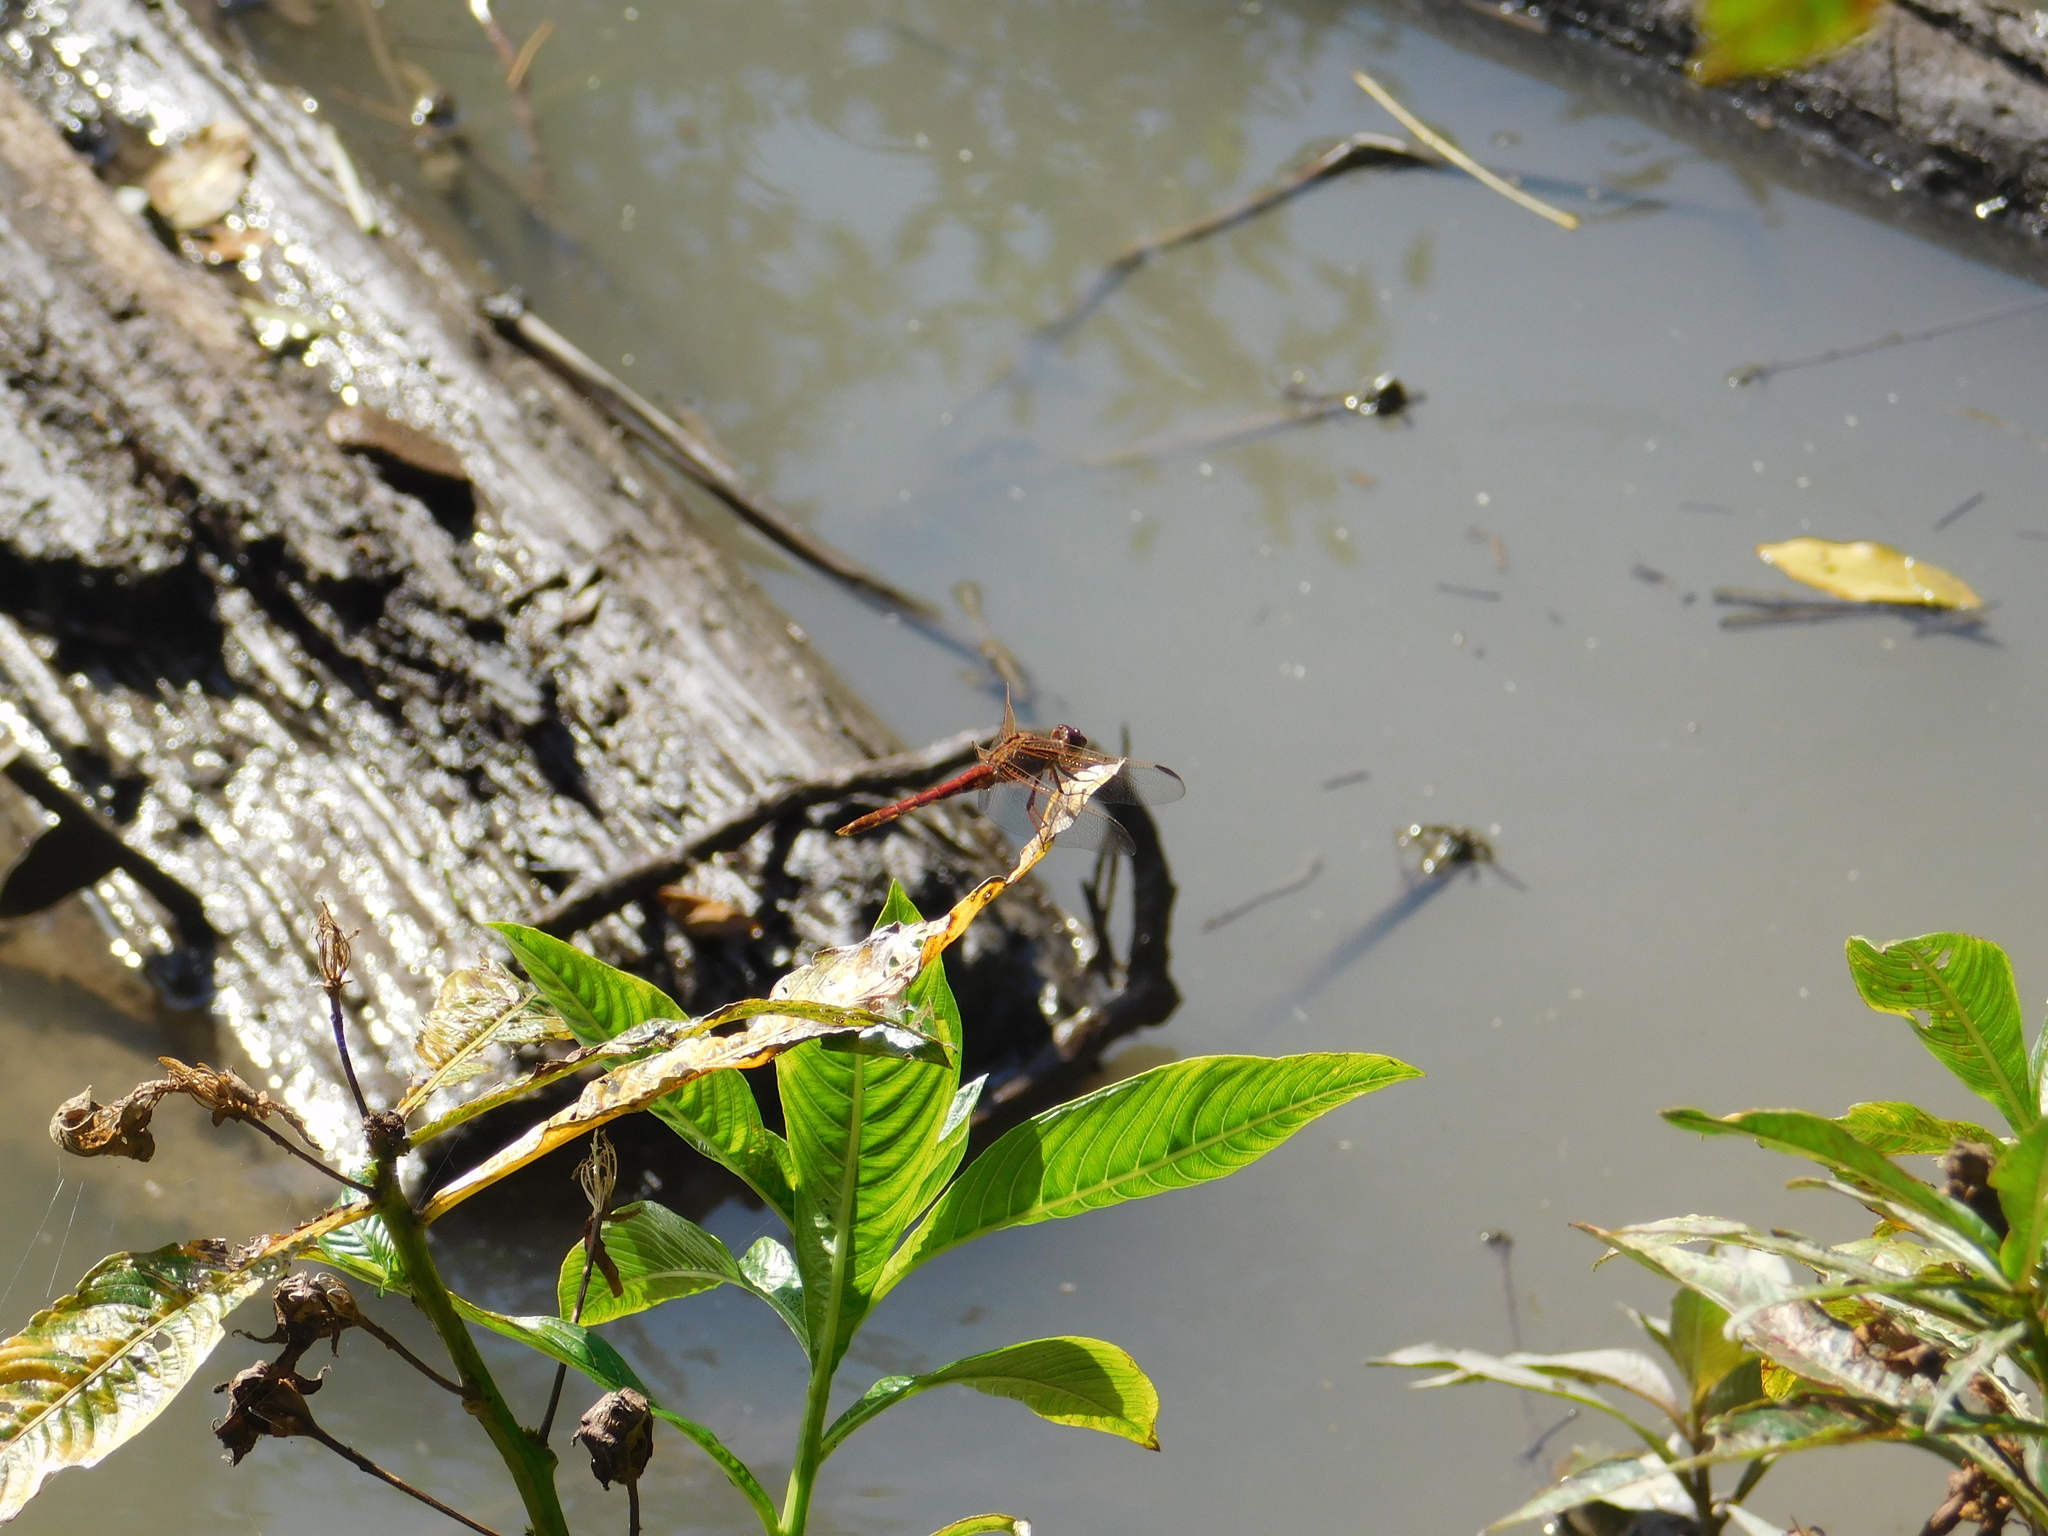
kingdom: Animalia
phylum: Arthropoda
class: Insecta
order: Odonata
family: Libellulidae
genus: Orthemis
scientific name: Orthemis nodiplaga
